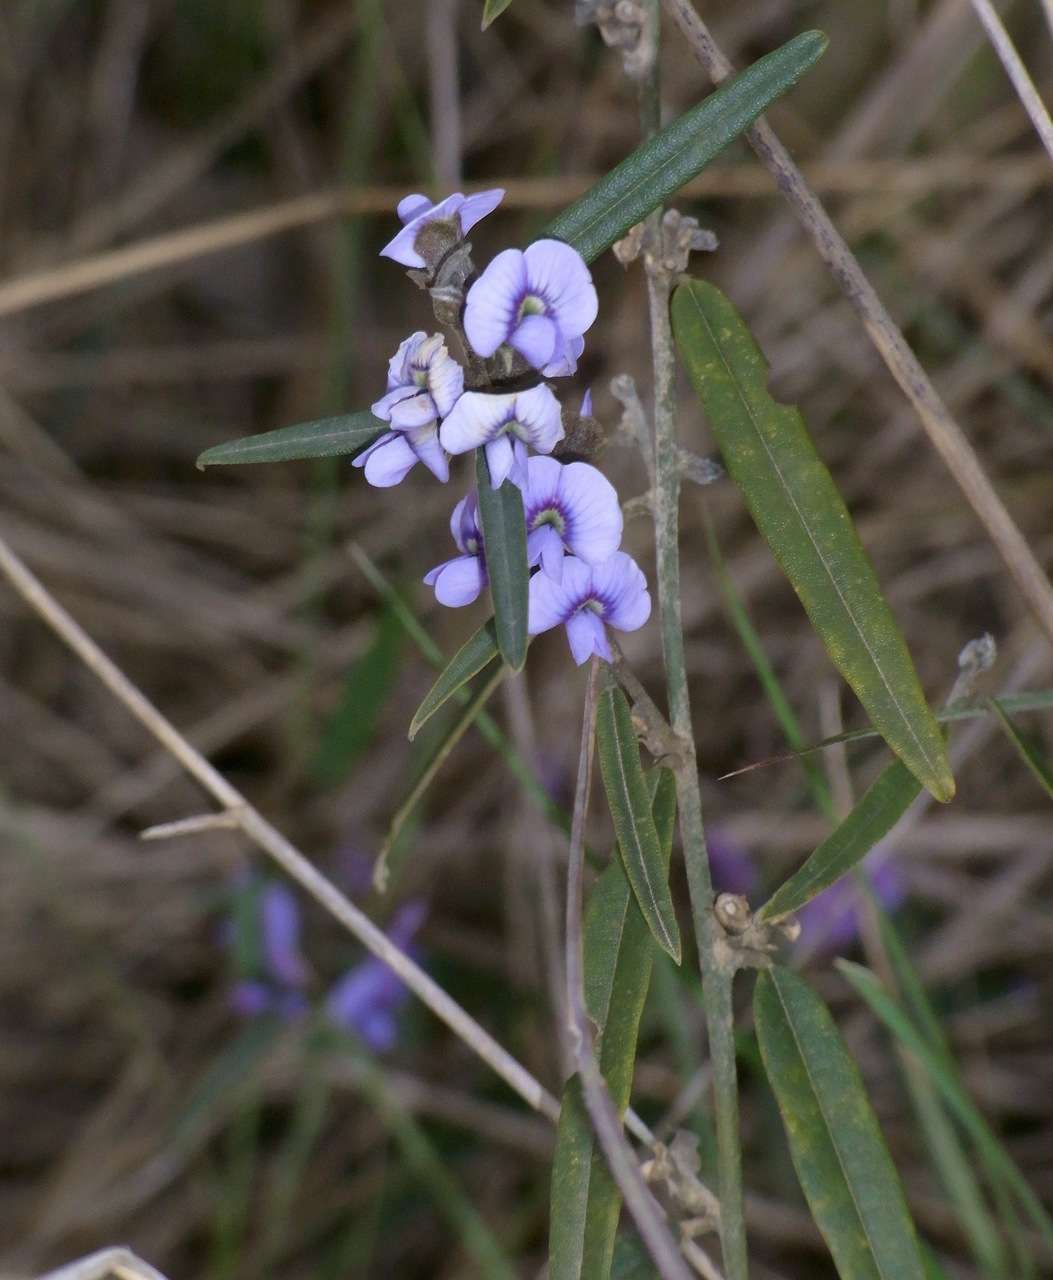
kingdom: Plantae
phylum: Tracheophyta
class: Magnoliopsida
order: Fabales
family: Fabaceae
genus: Hovea
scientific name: Hovea heterophylla
